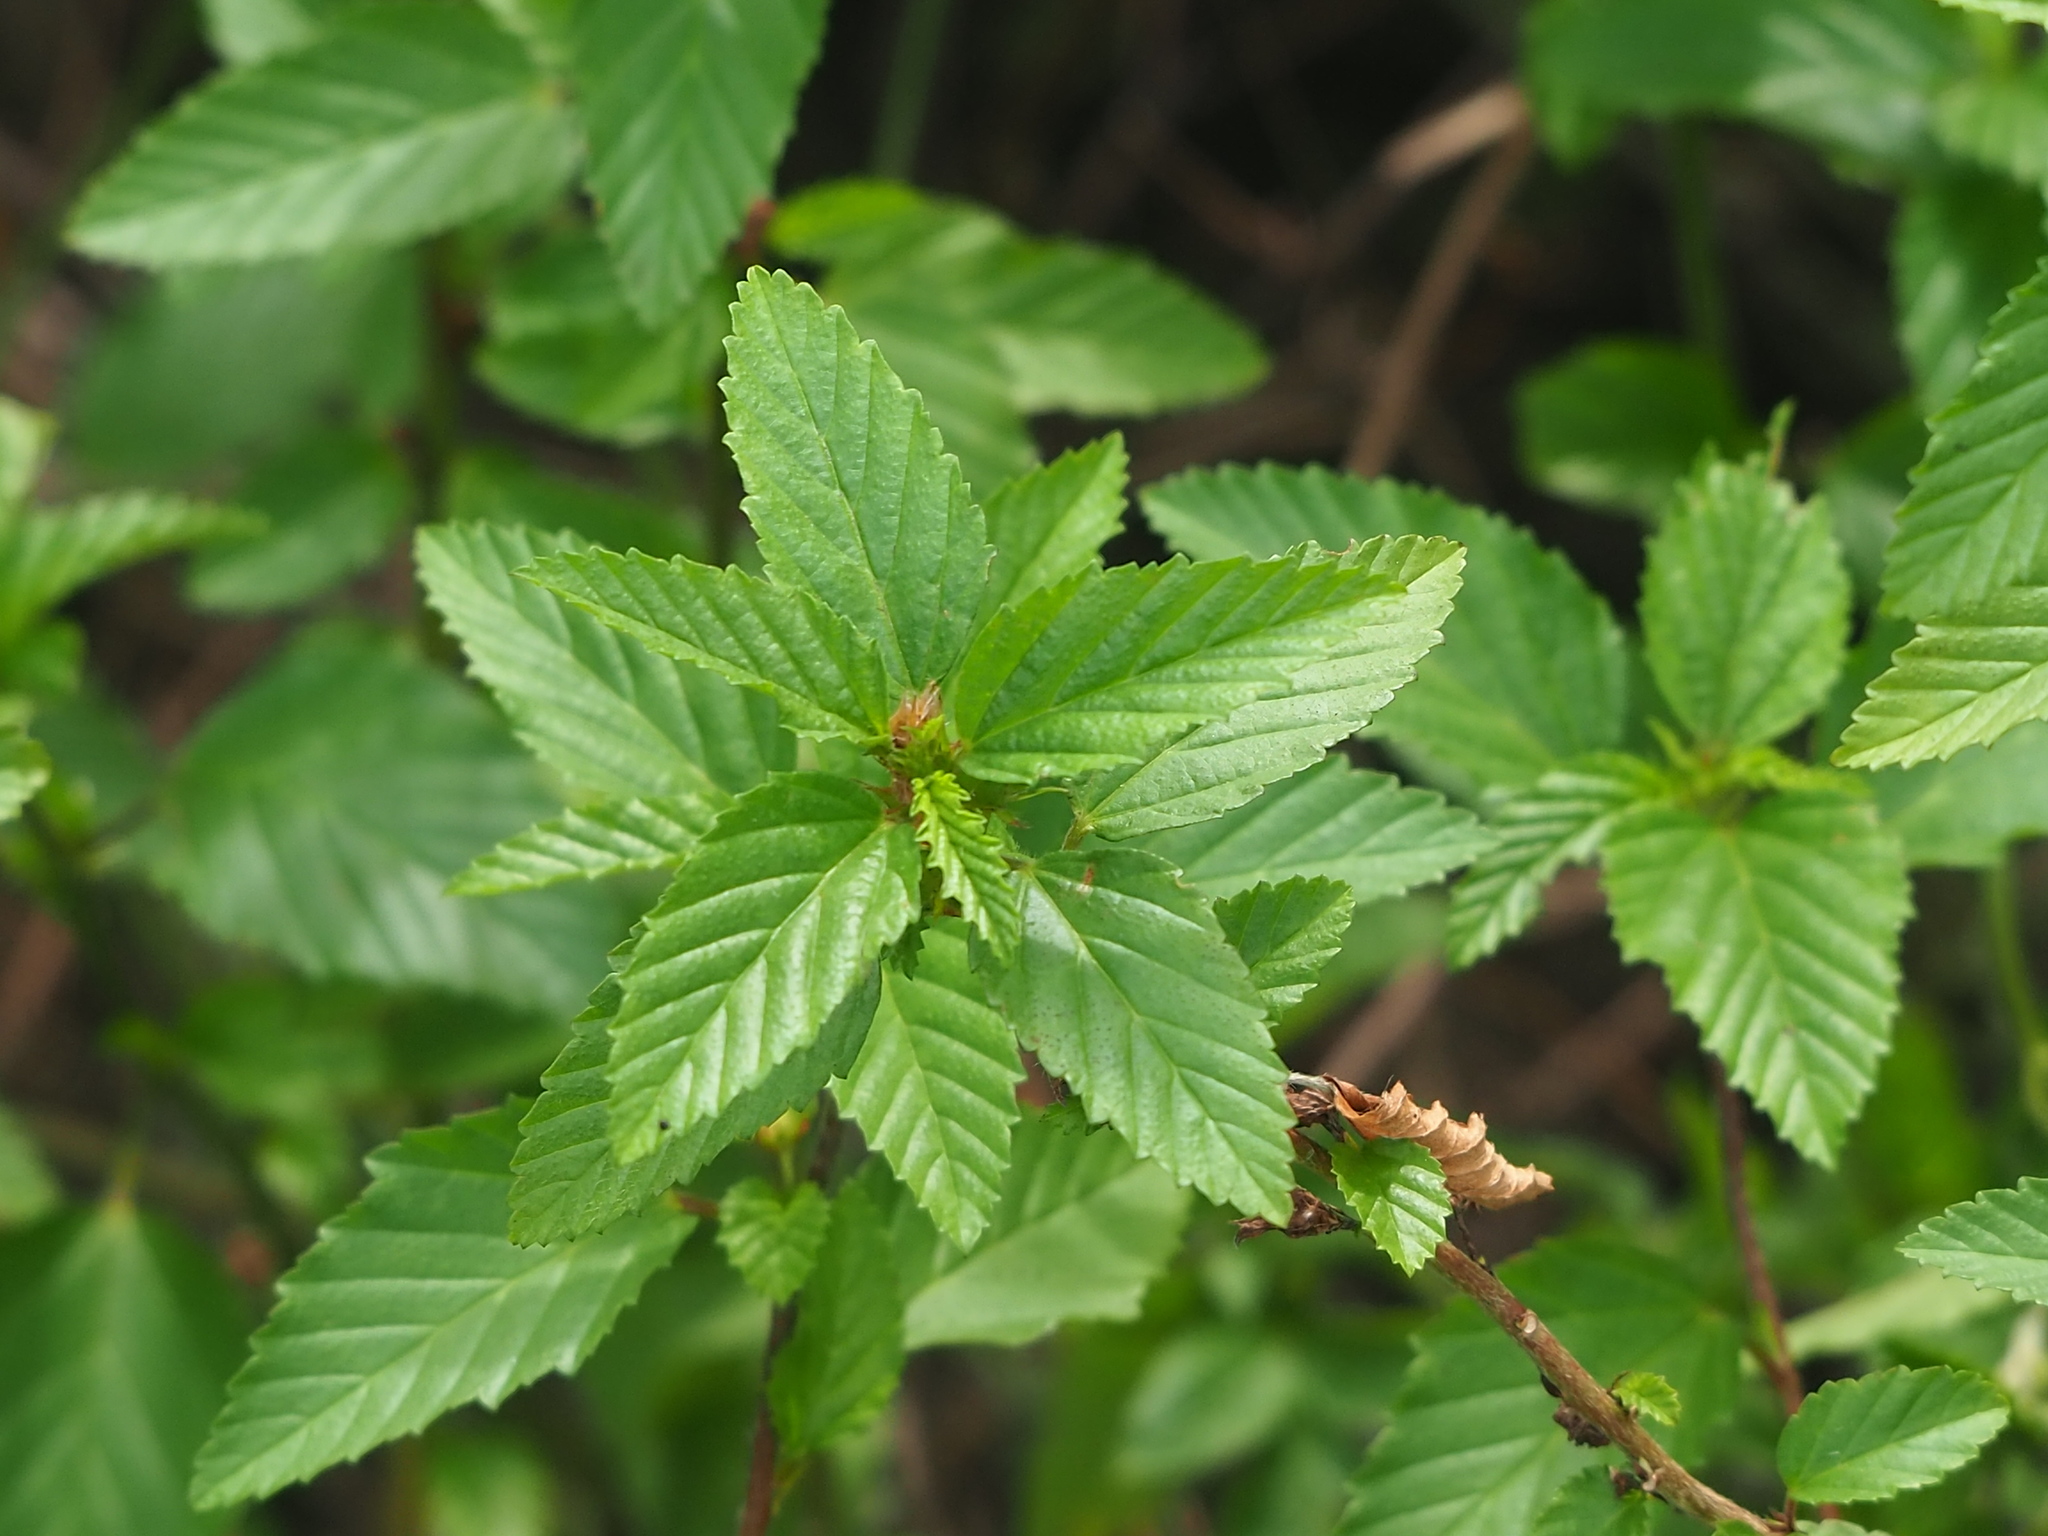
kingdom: Plantae
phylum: Tracheophyta
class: Magnoliopsida
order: Malvales
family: Malvaceae
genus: Malvastrum
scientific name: Malvastrum coromandelianum
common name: Threelobe false mallow
